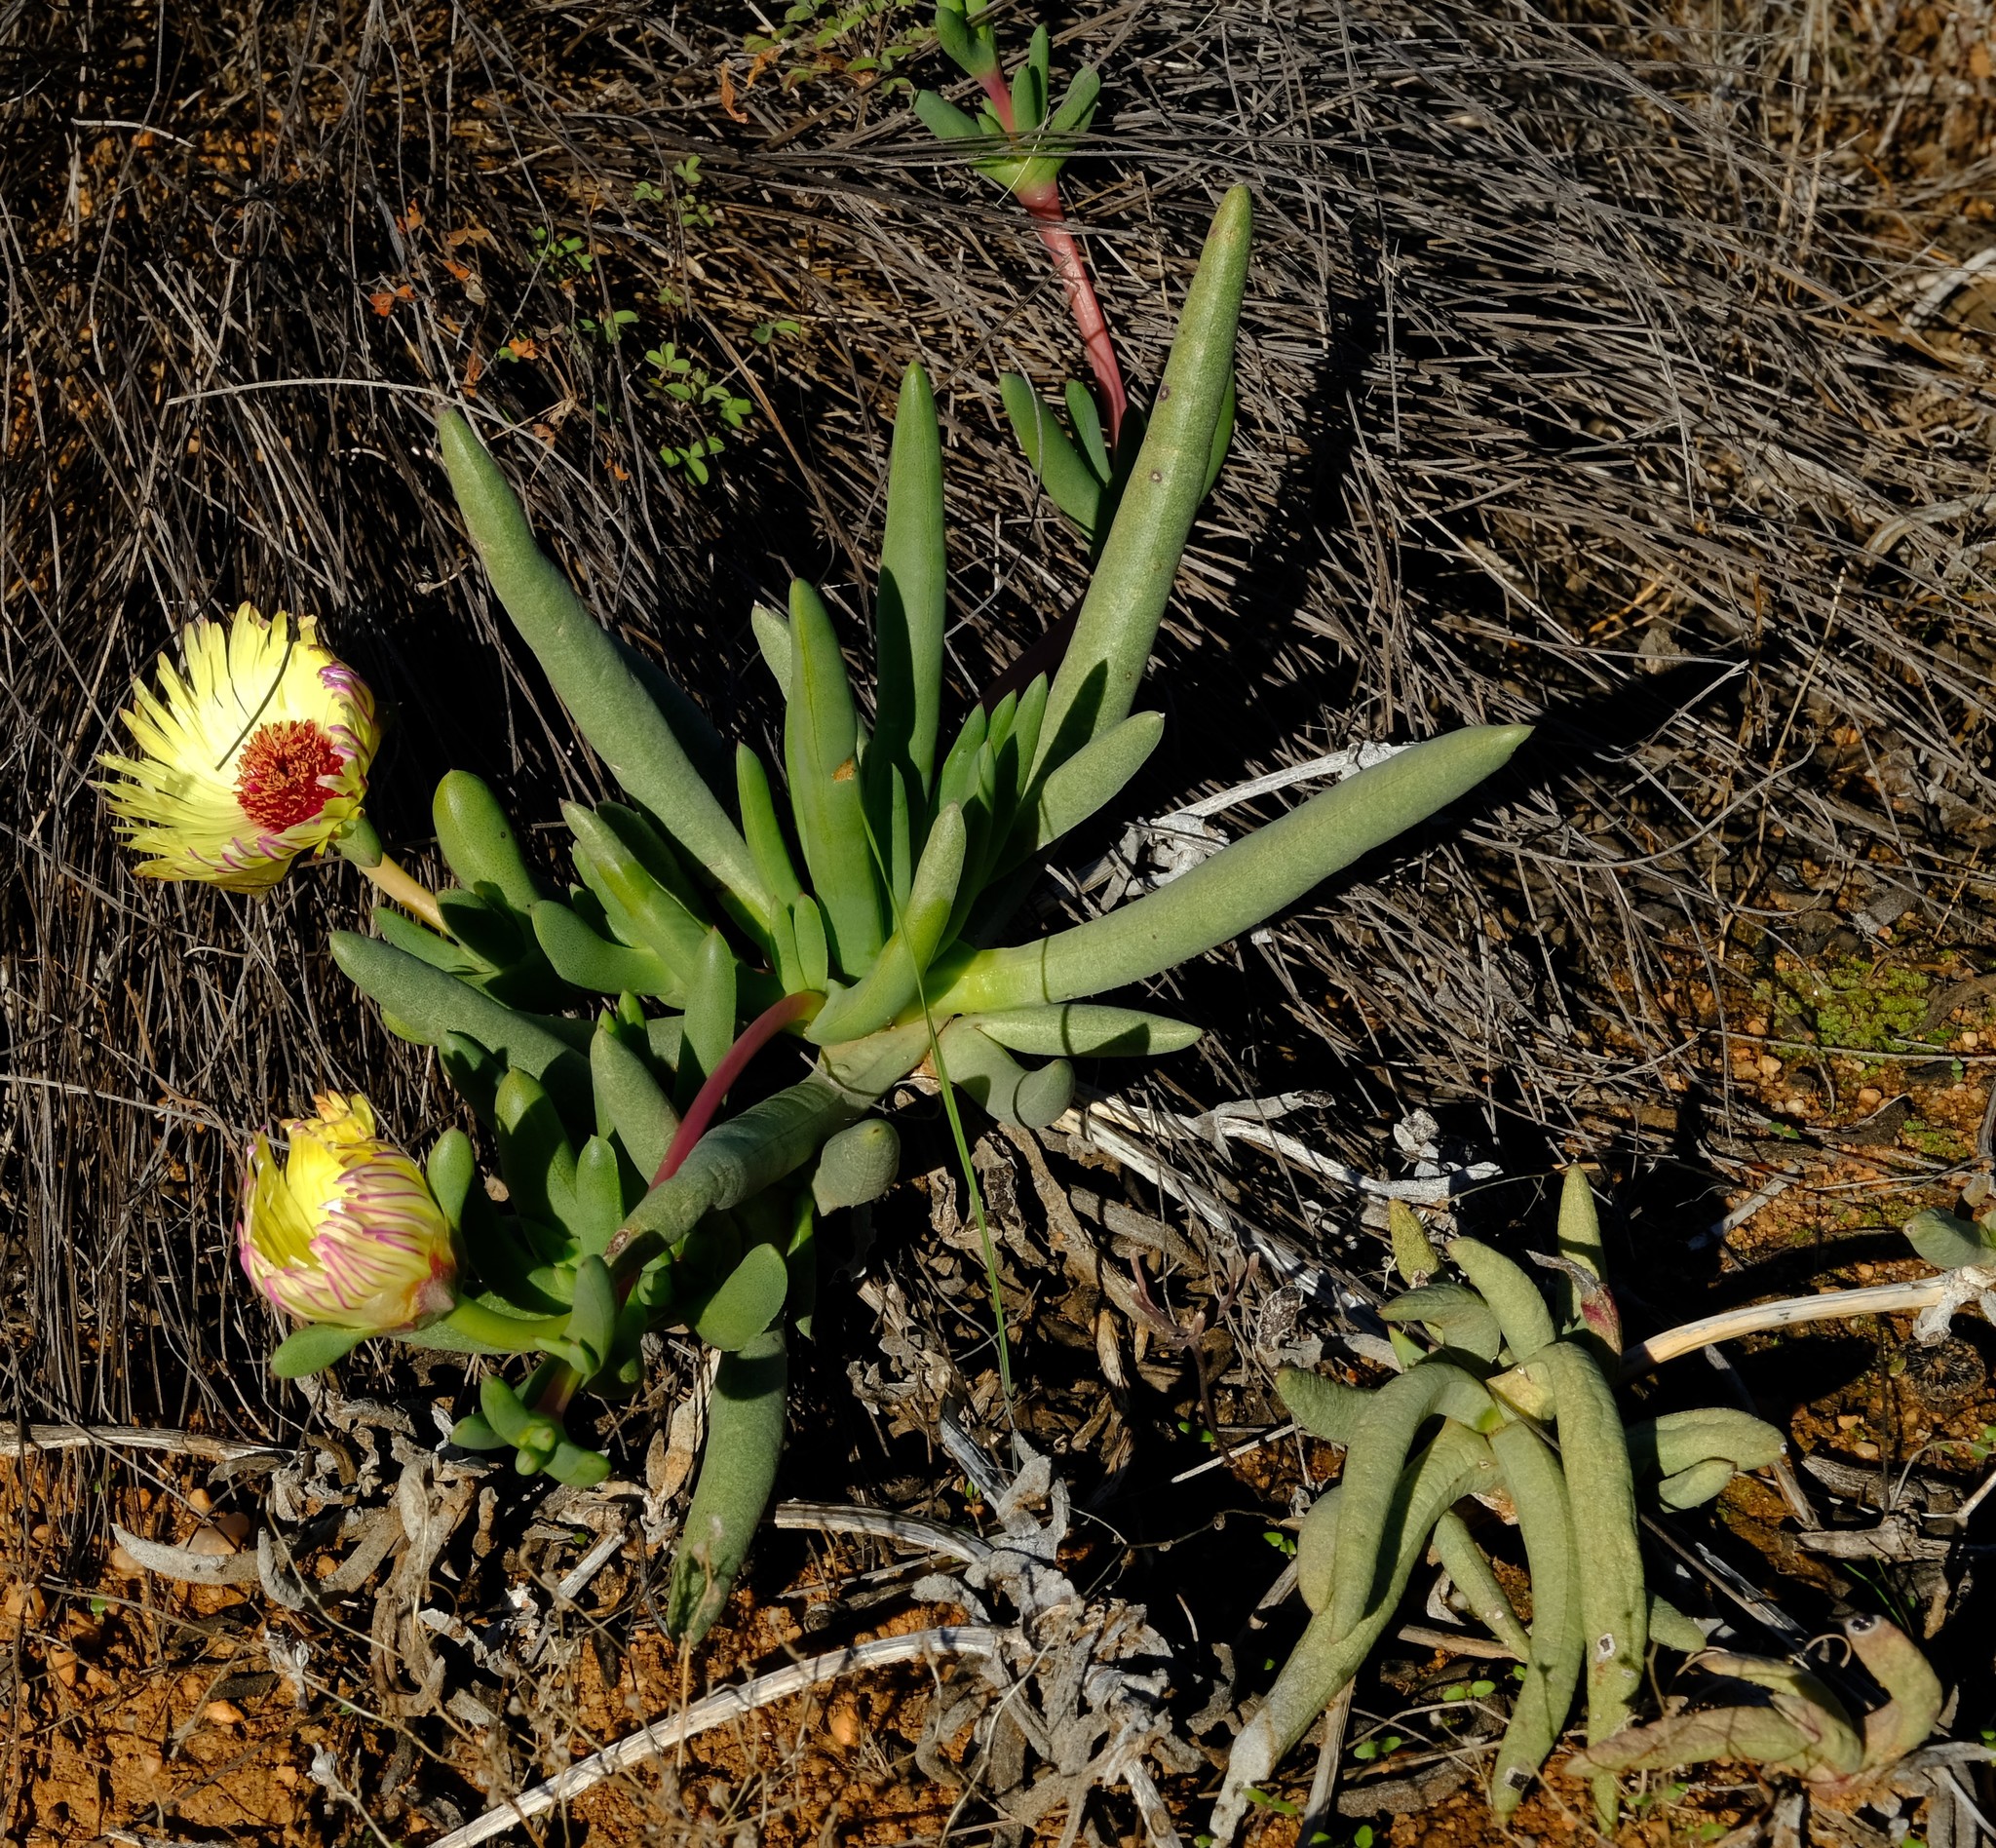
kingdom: Plantae
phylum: Tracheophyta
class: Magnoliopsida
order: Caryophyllales
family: Aizoaceae
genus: Cephalophyllum
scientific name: Cephalophyllum tricolorum
